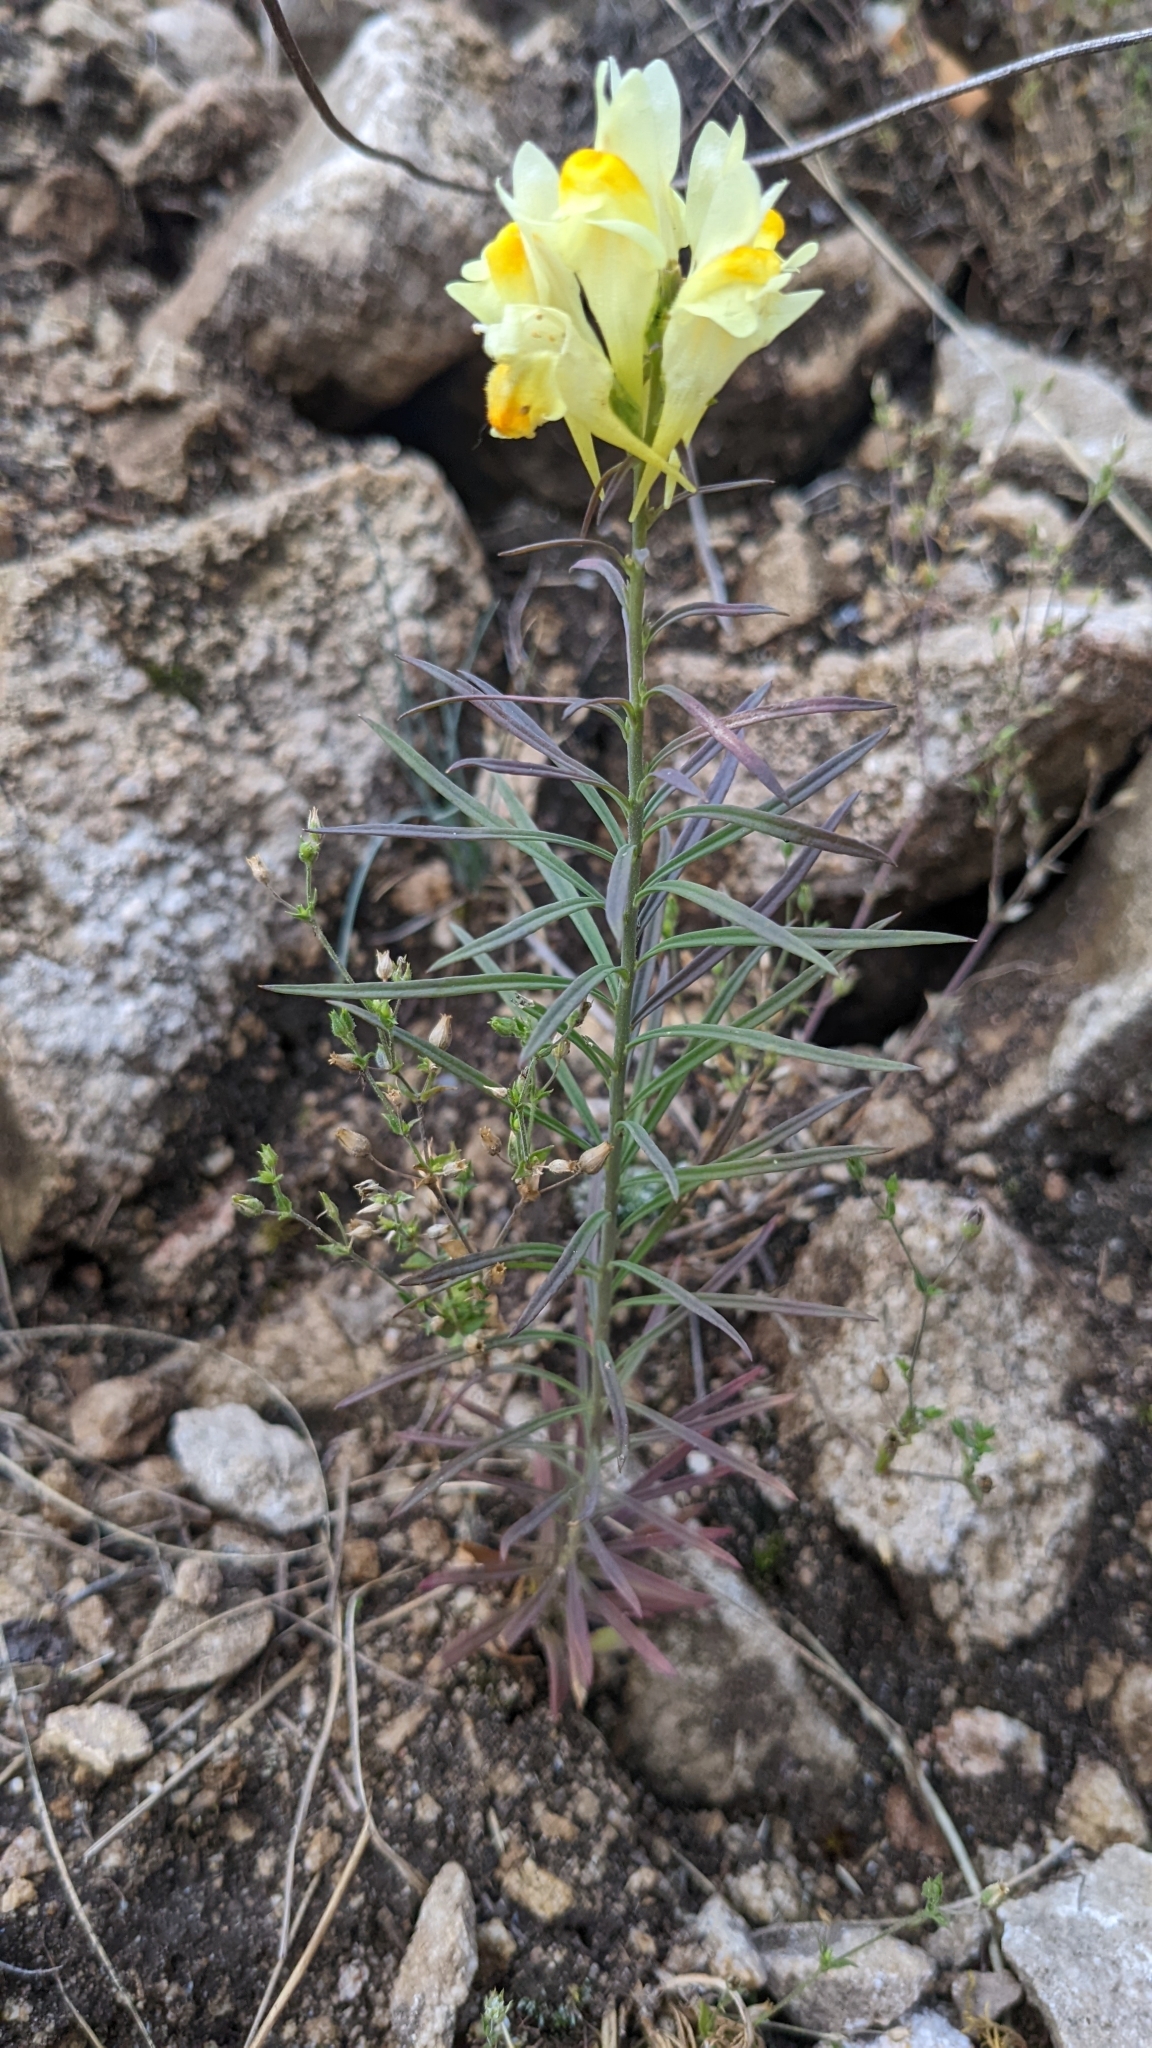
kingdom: Plantae
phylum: Tracheophyta
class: Magnoliopsida
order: Lamiales
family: Plantaginaceae
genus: Linaria
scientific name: Linaria vulgaris
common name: Butter and eggs
